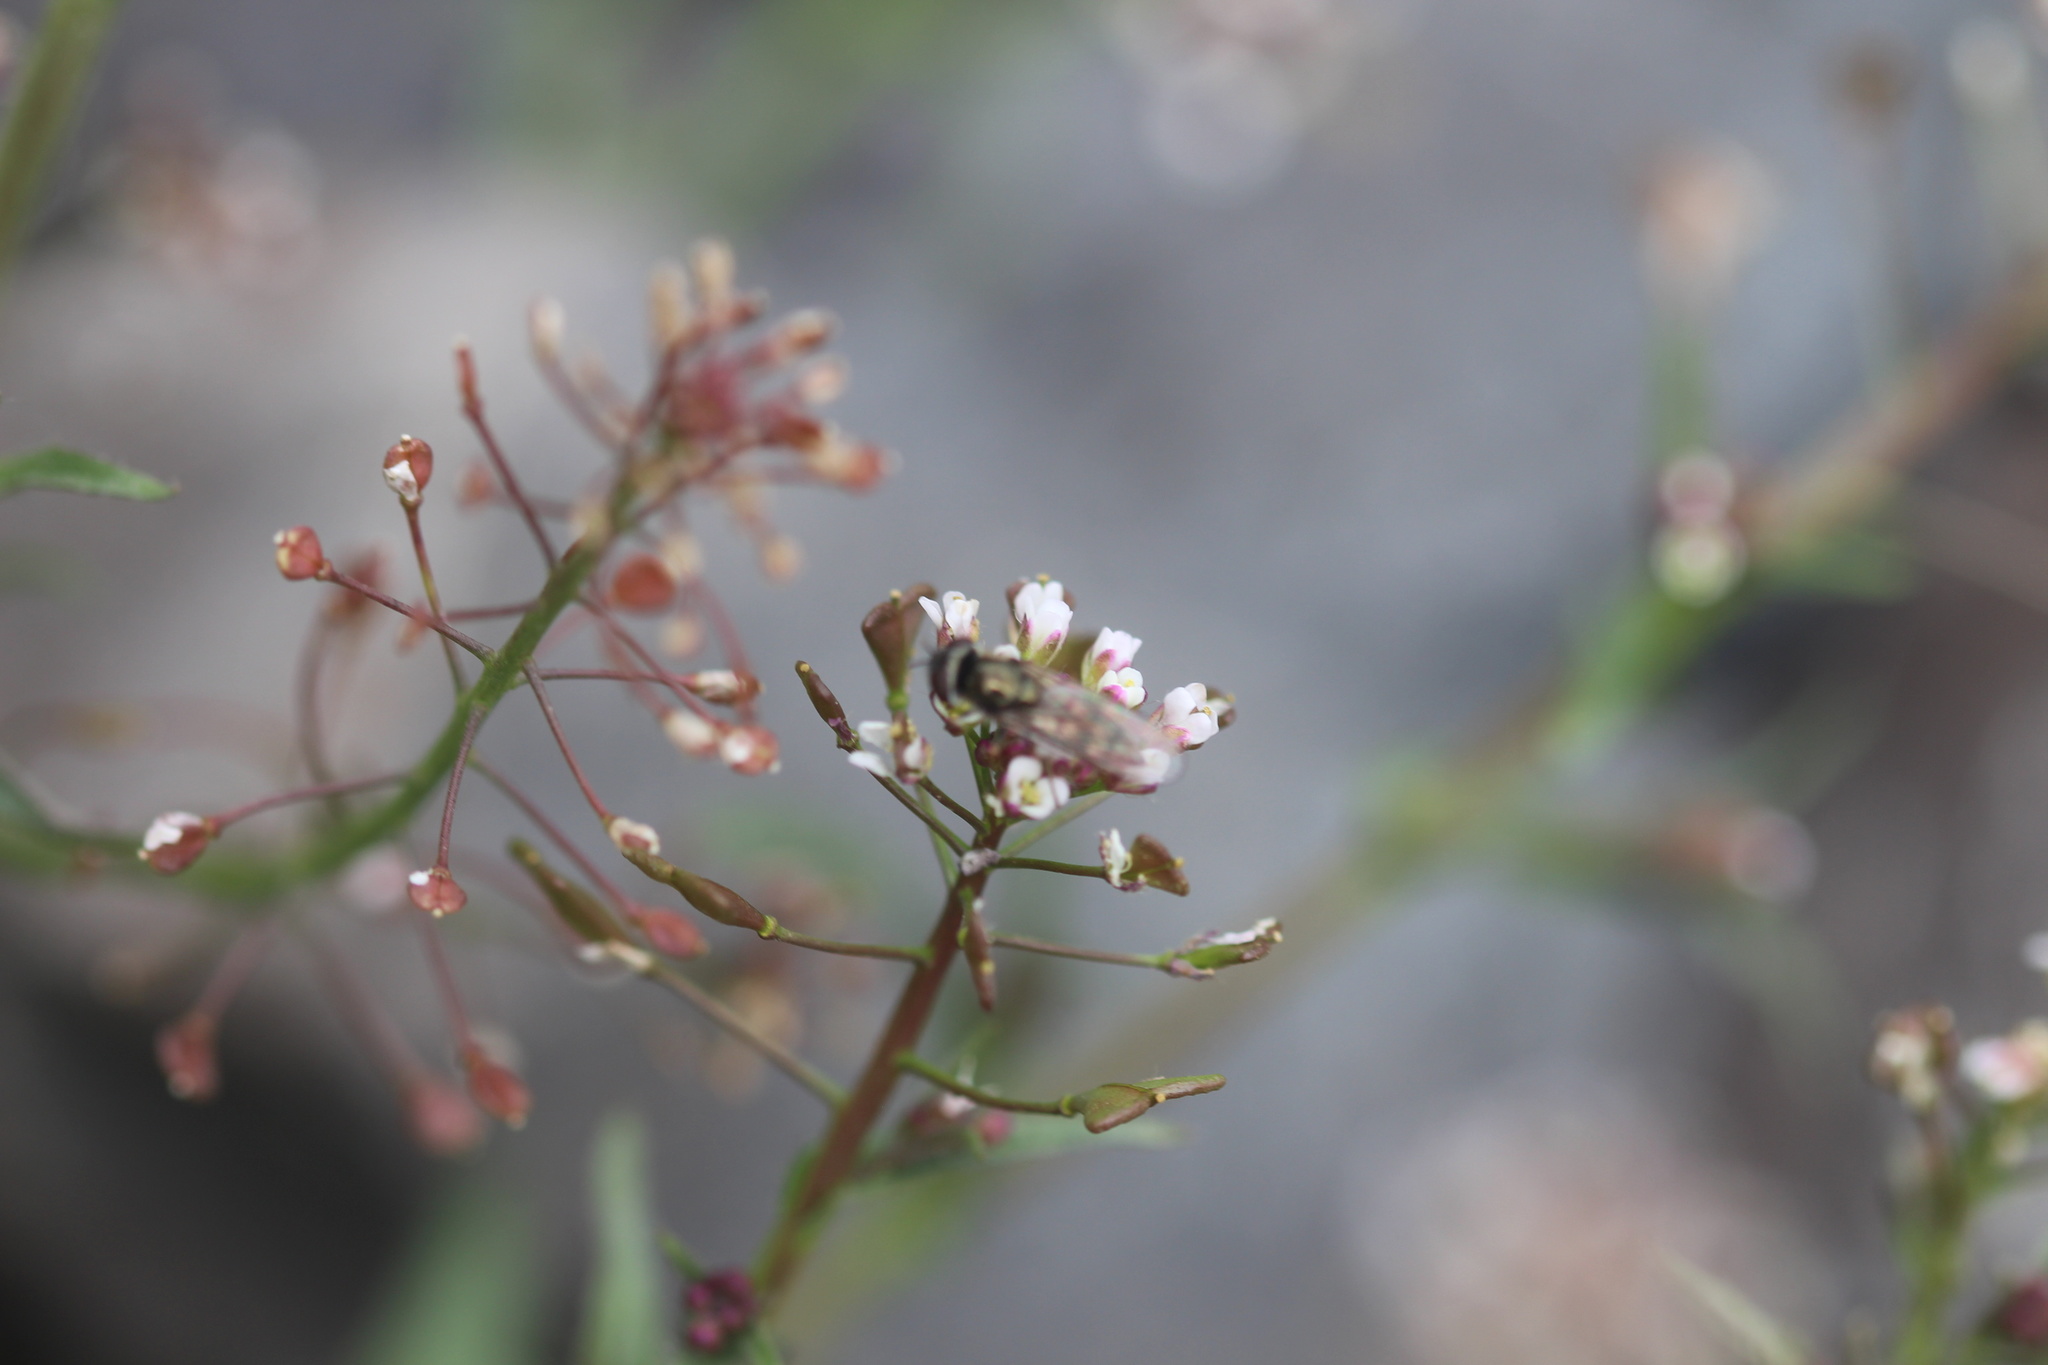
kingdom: Plantae
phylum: Tracheophyta
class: Magnoliopsida
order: Brassicales
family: Brassicaceae
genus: Capsella
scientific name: Capsella bursa-pastoris
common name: Shepherd's purse
